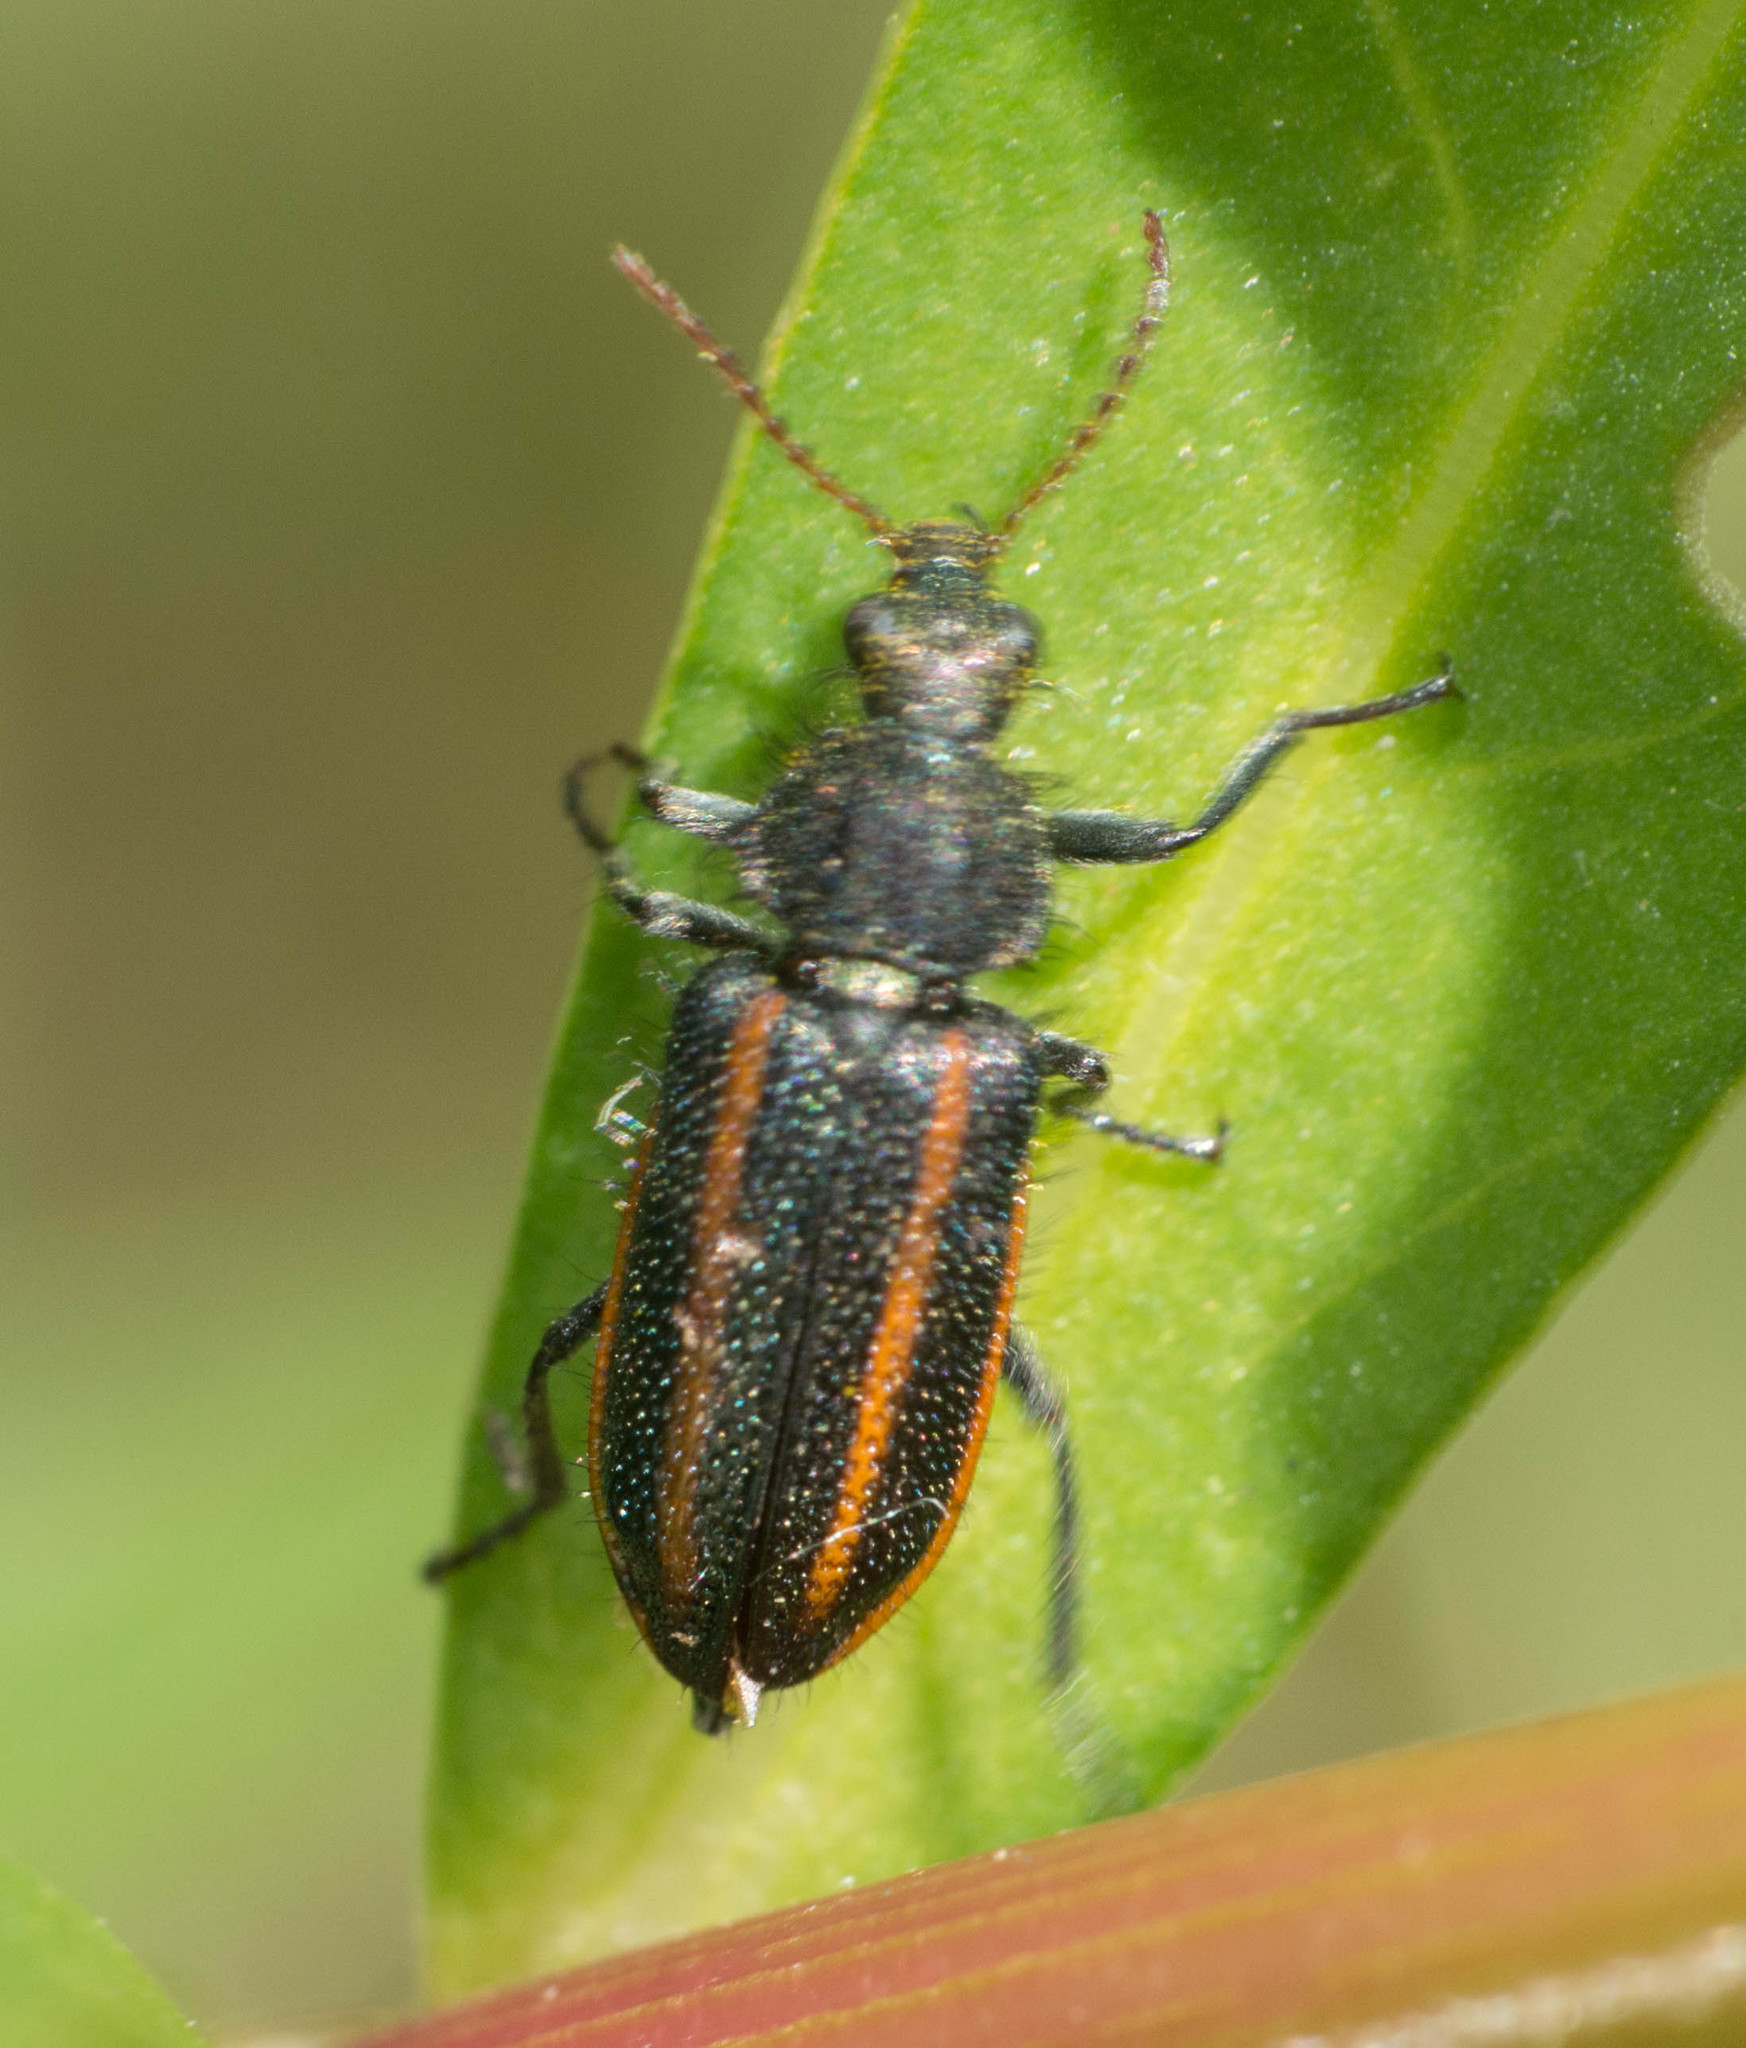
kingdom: Animalia
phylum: Arthropoda
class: Insecta
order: Coleoptera
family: Melyridae
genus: Astylus
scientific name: Astylus
